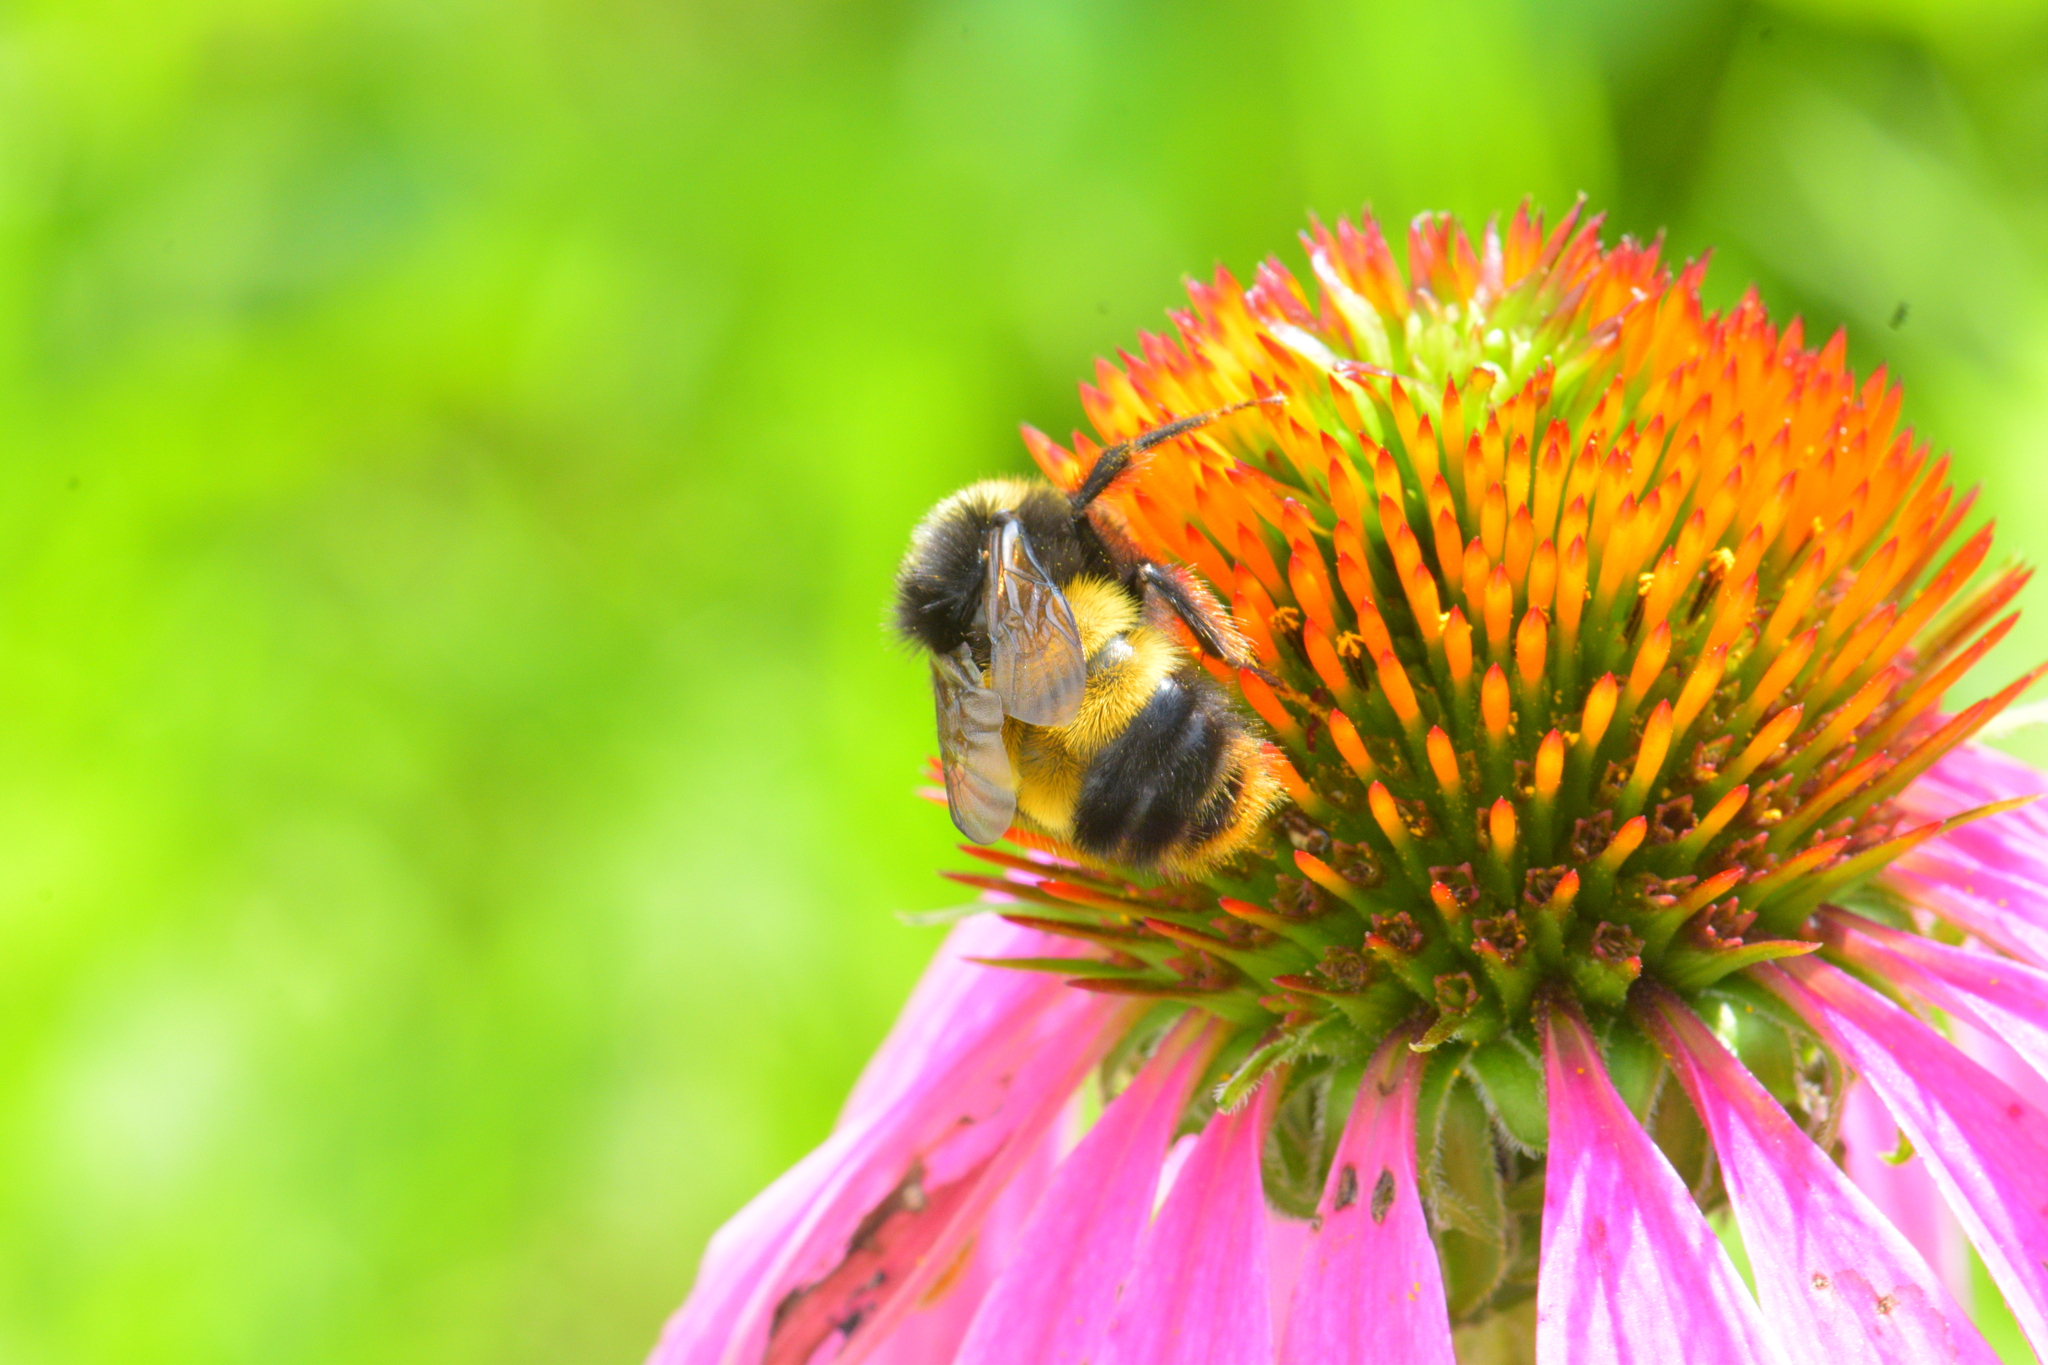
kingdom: Animalia
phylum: Arthropoda
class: Insecta
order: Hymenoptera
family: Apidae
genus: Bombus
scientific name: Bombus terricola
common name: Yellow-banded bumble bee
